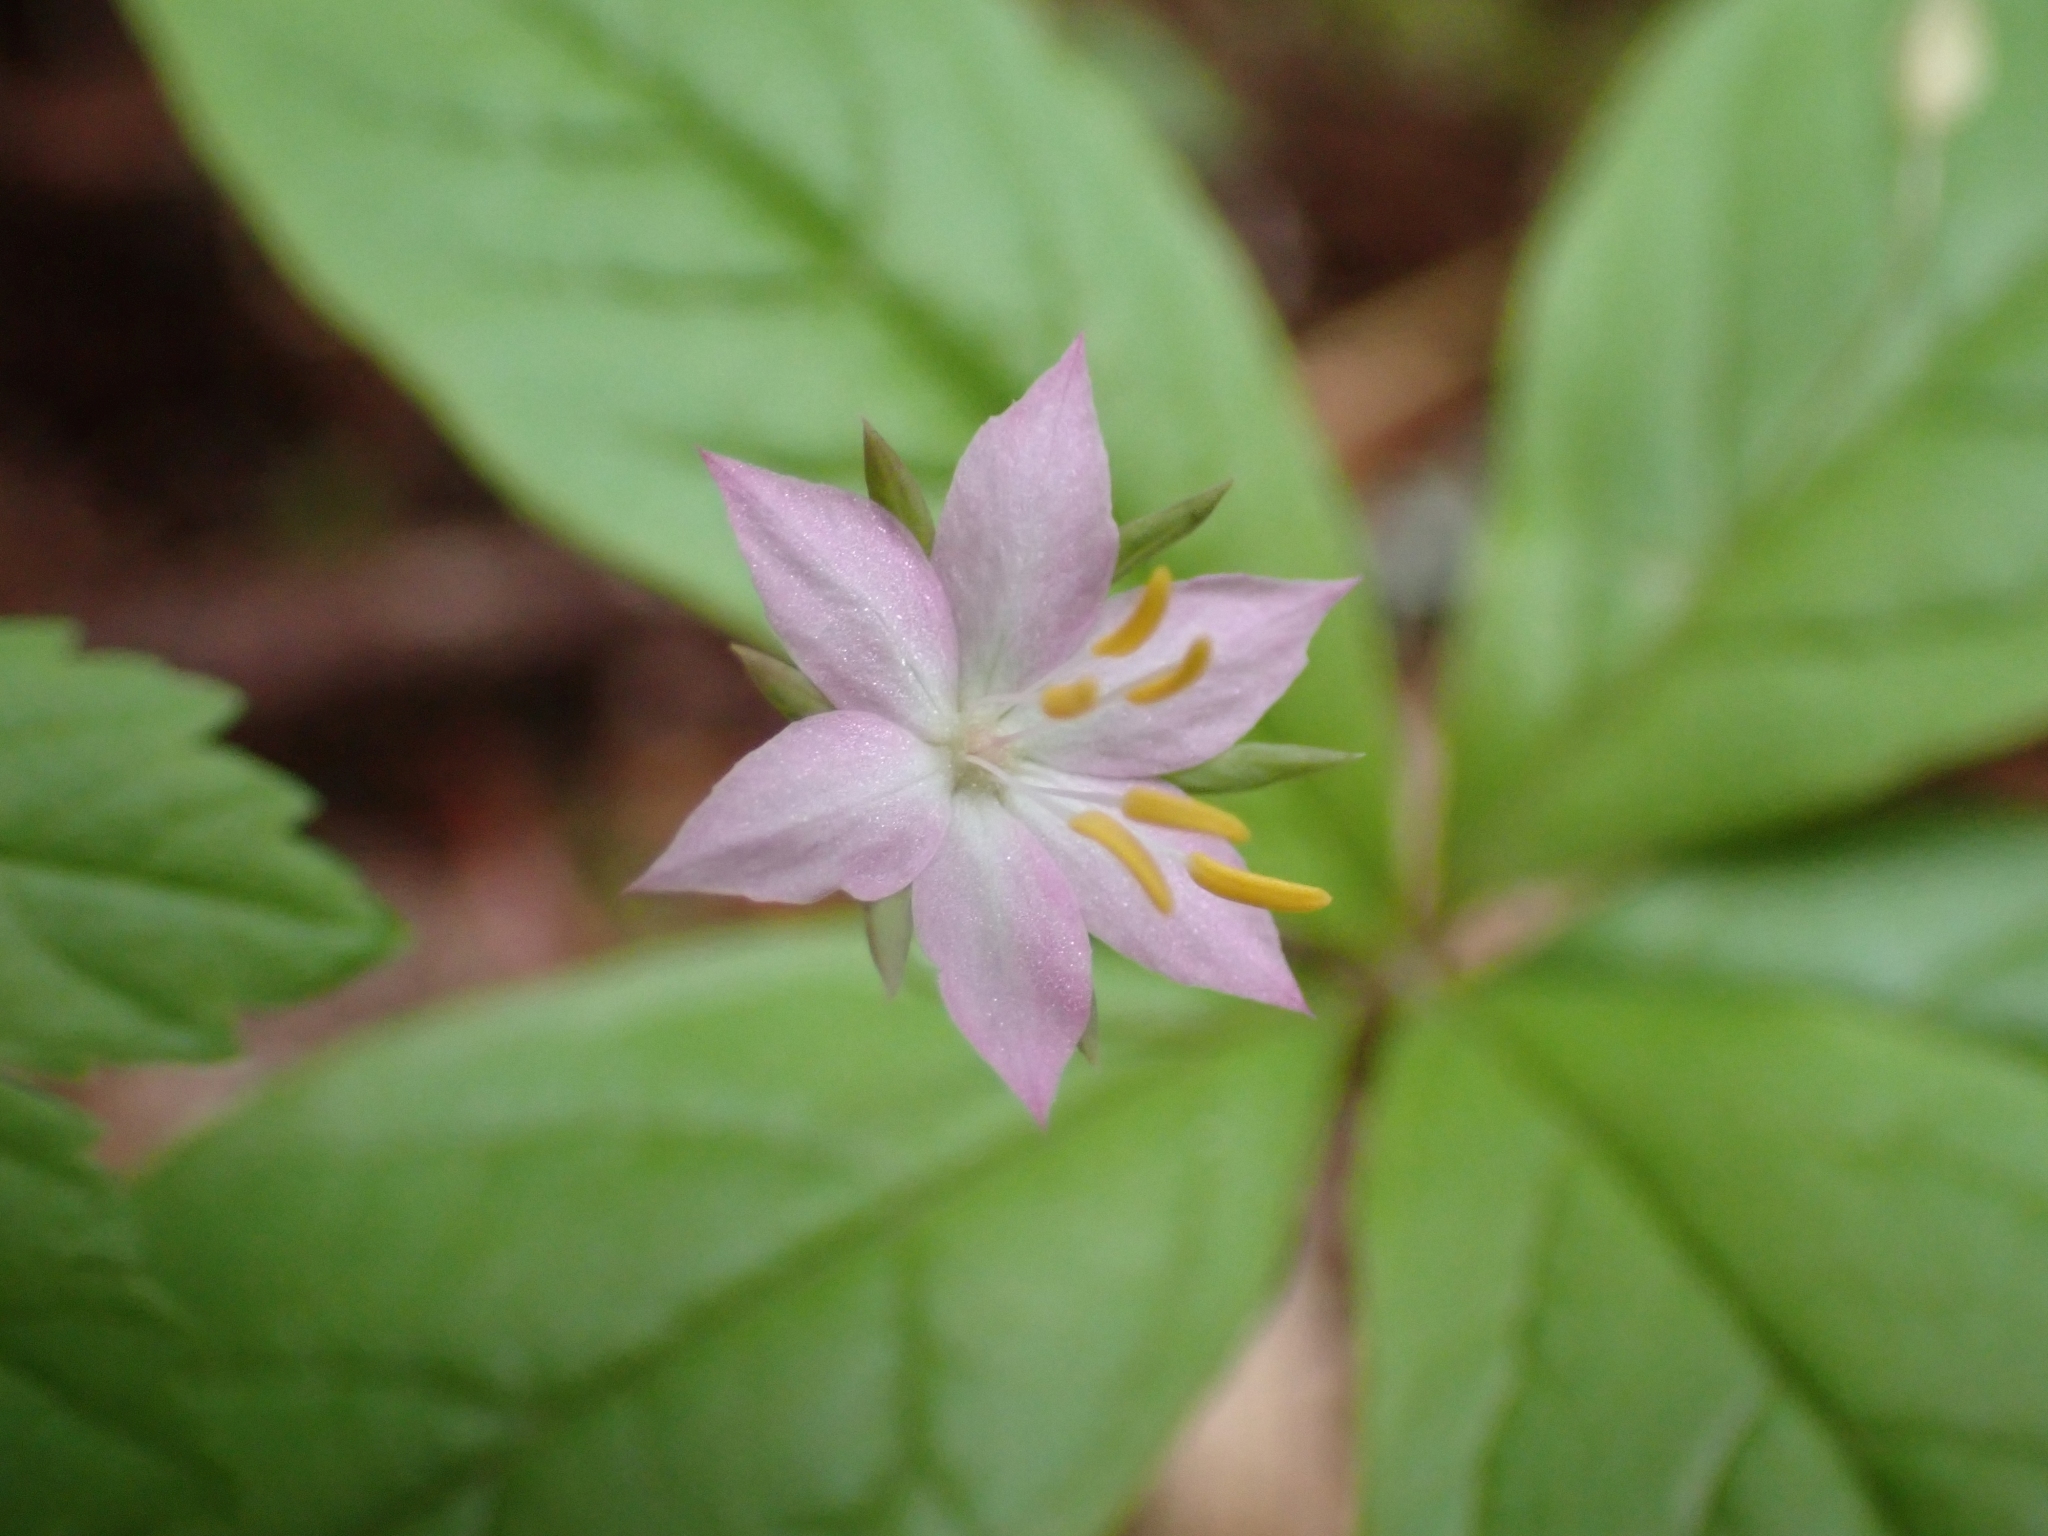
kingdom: Plantae
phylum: Tracheophyta
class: Magnoliopsida
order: Ericales
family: Primulaceae
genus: Lysimachia
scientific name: Lysimachia latifolia
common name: Pacific starflower
